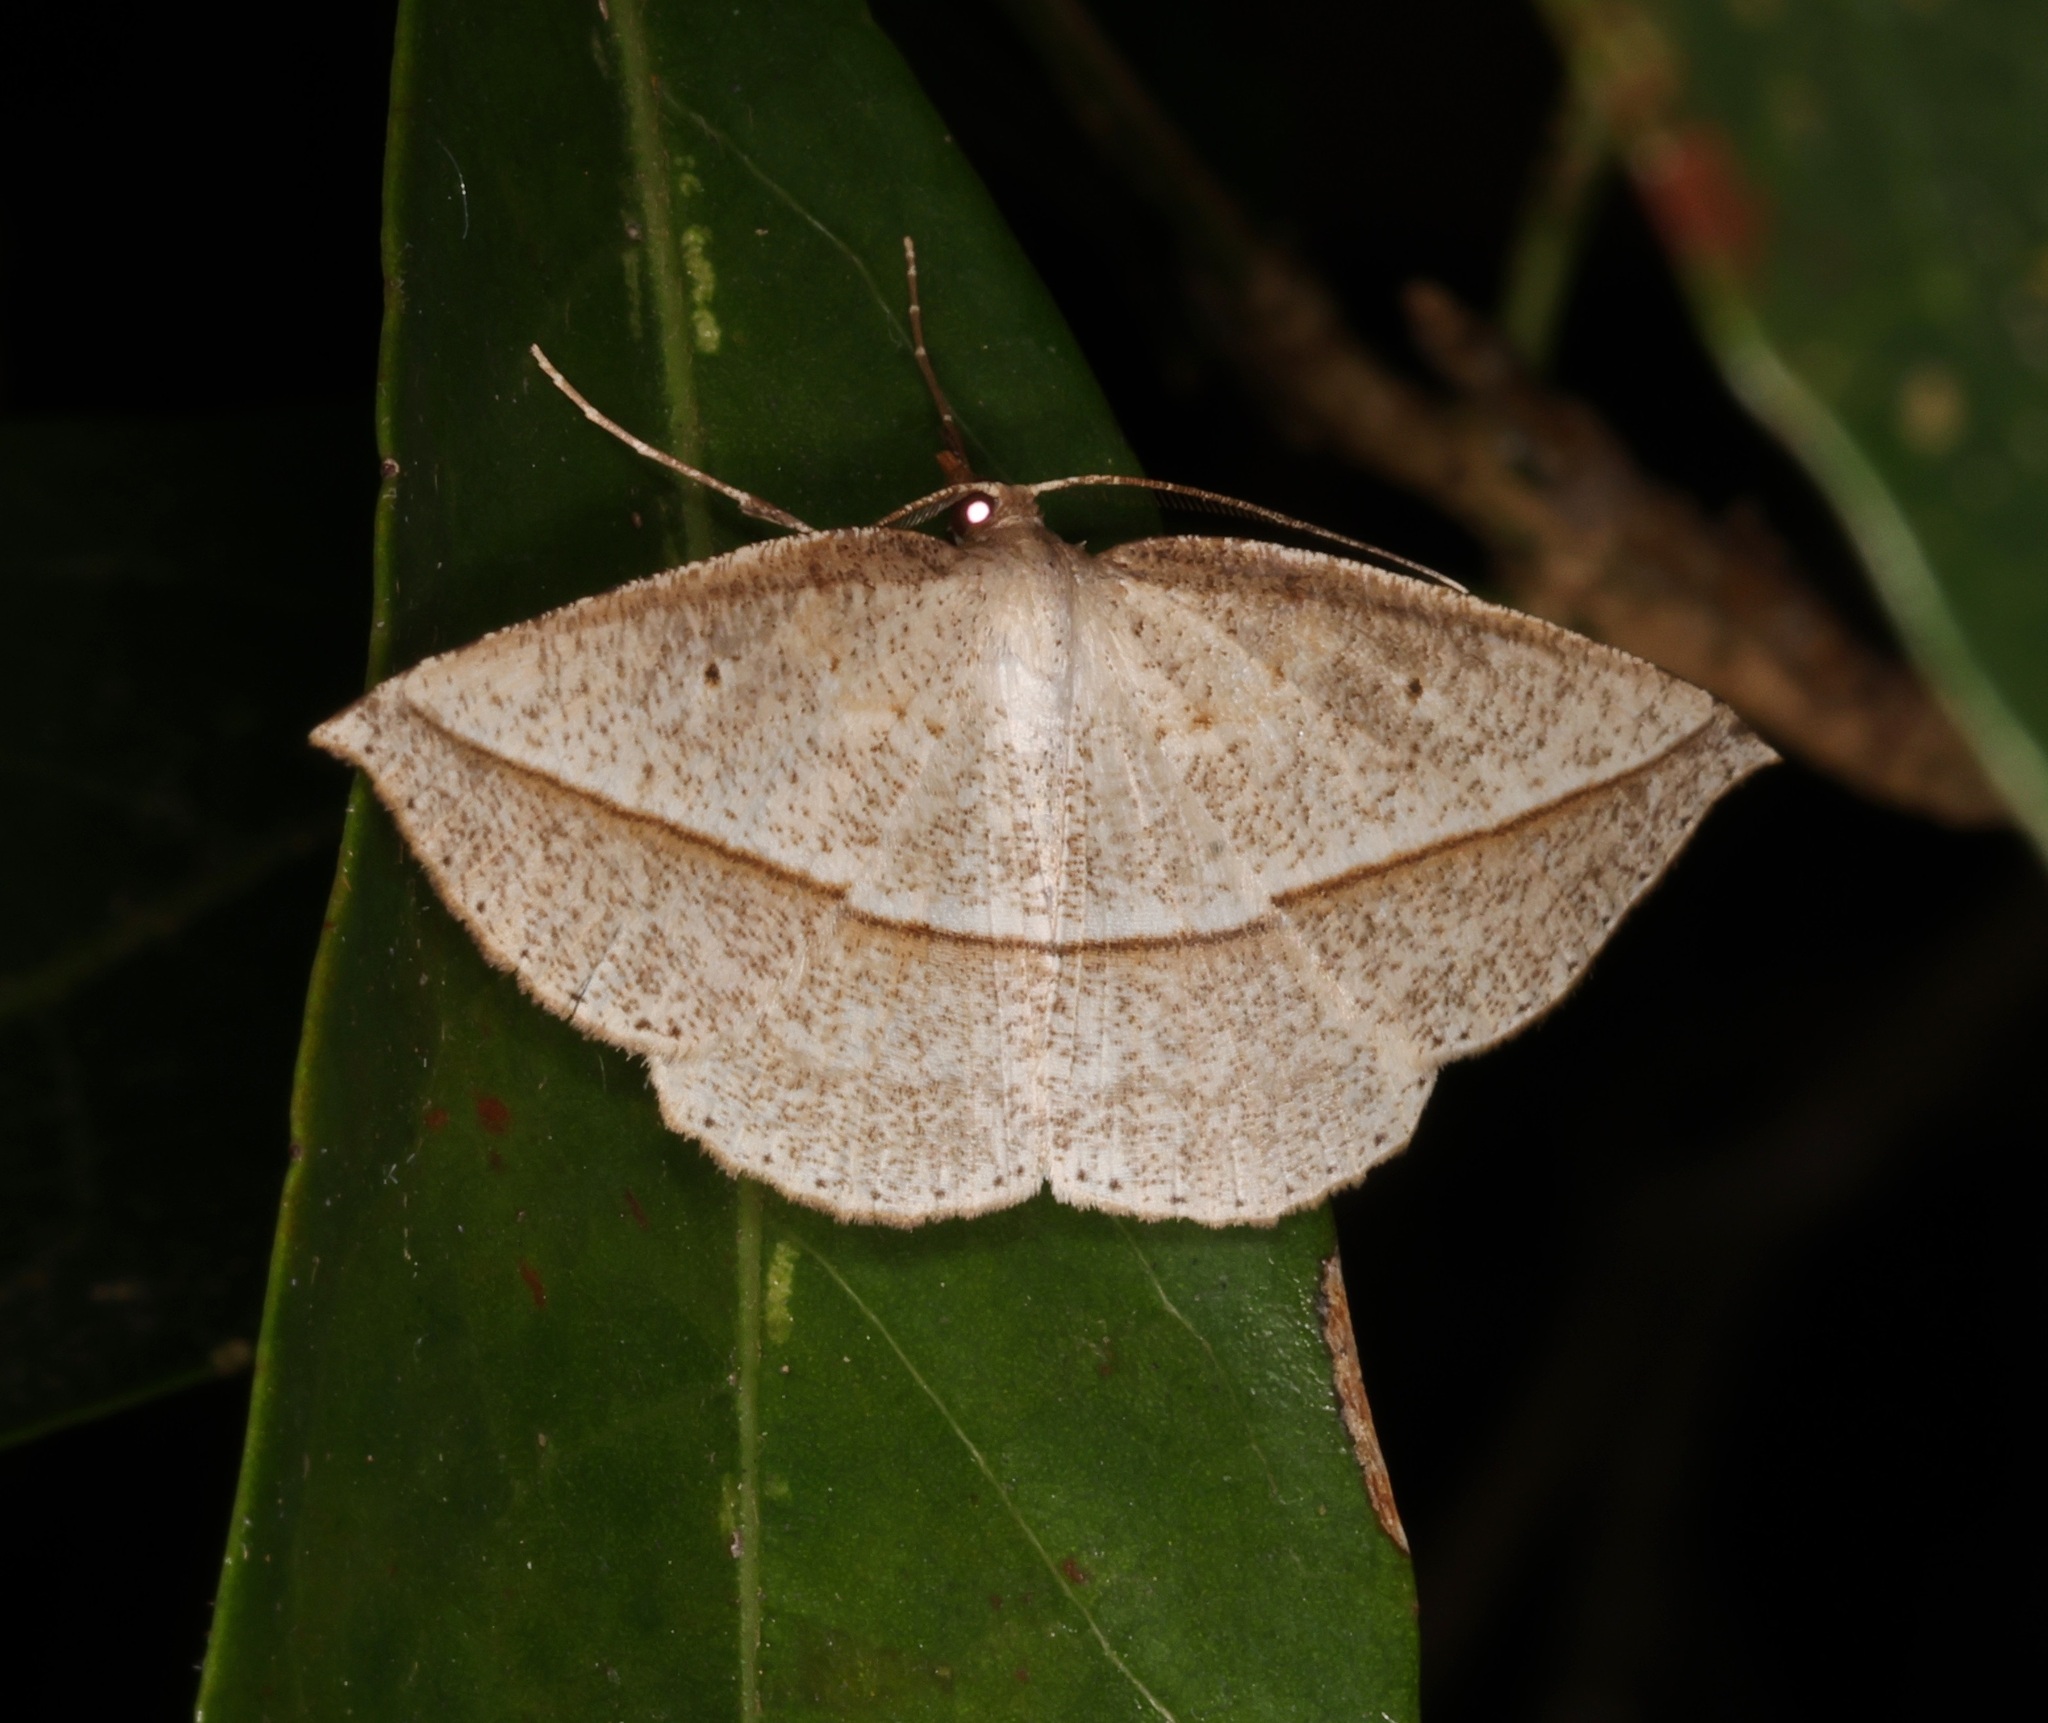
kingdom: Animalia
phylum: Arthropoda
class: Insecta
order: Lepidoptera
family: Geometridae
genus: Heteralex
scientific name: Heteralex unilinea
